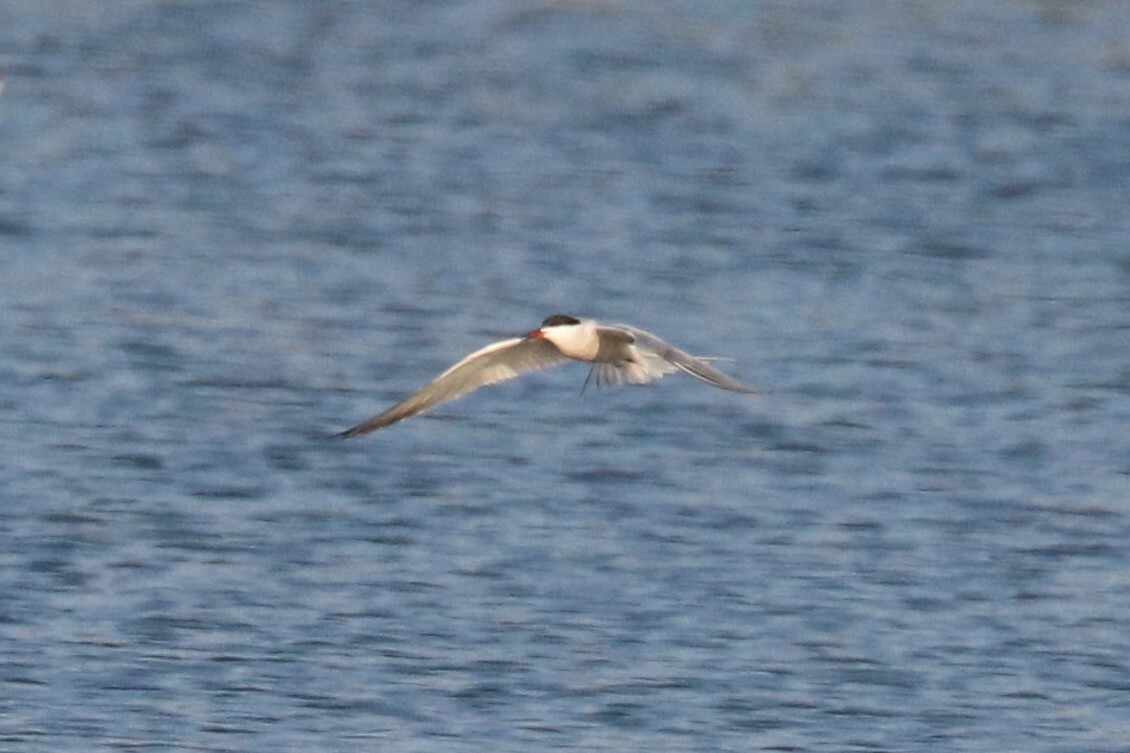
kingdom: Animalia
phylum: Chordata
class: Aves
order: Charadriiformes
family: Laridae
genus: Sterna
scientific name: Sterna hirundo
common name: Common tern
